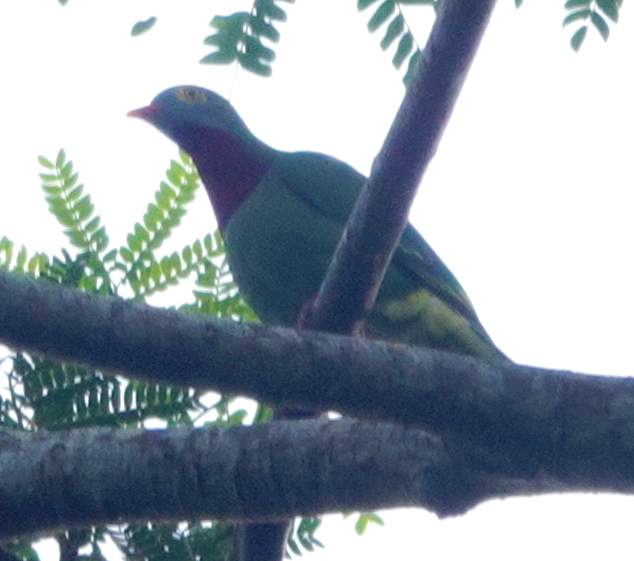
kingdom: Animalia
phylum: Chordata
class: Aves
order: Columbiformes
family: Columbidae
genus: Ptilinopus
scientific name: Ptilinopus viridis
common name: Claret-breasted fruit dove
